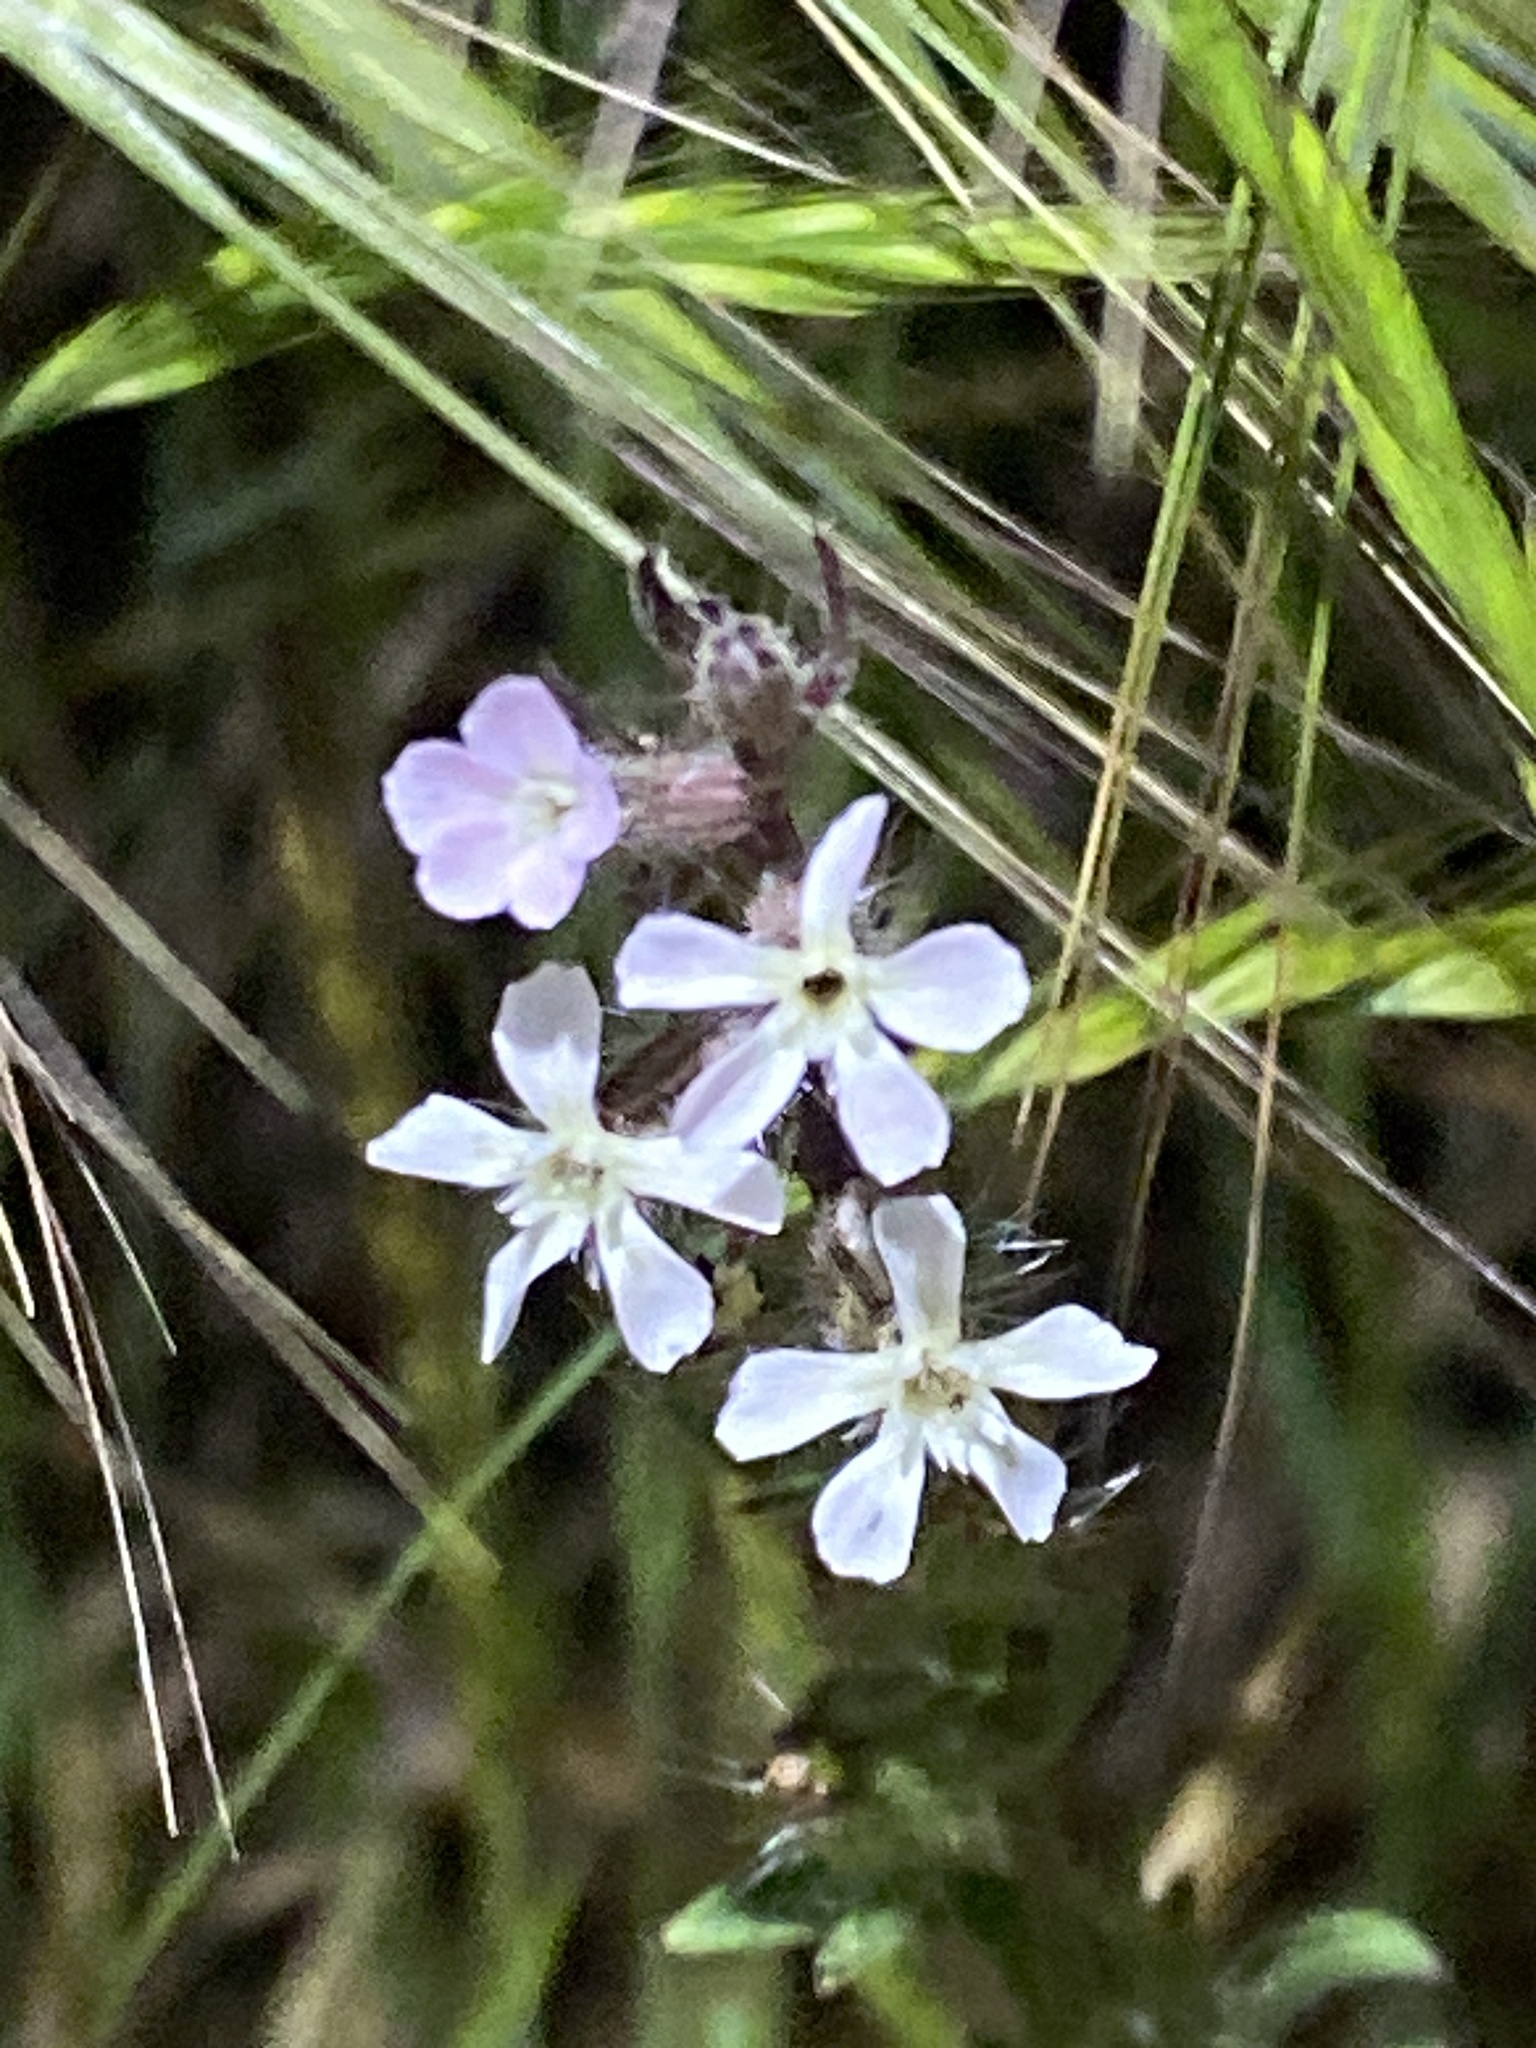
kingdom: Plantae
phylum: Tracheophyta
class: Magnoliopsida
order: Caryophyllales
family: Caryophyllaceae
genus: Silene
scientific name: Silene gallica
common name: Small-flowered catchfly
